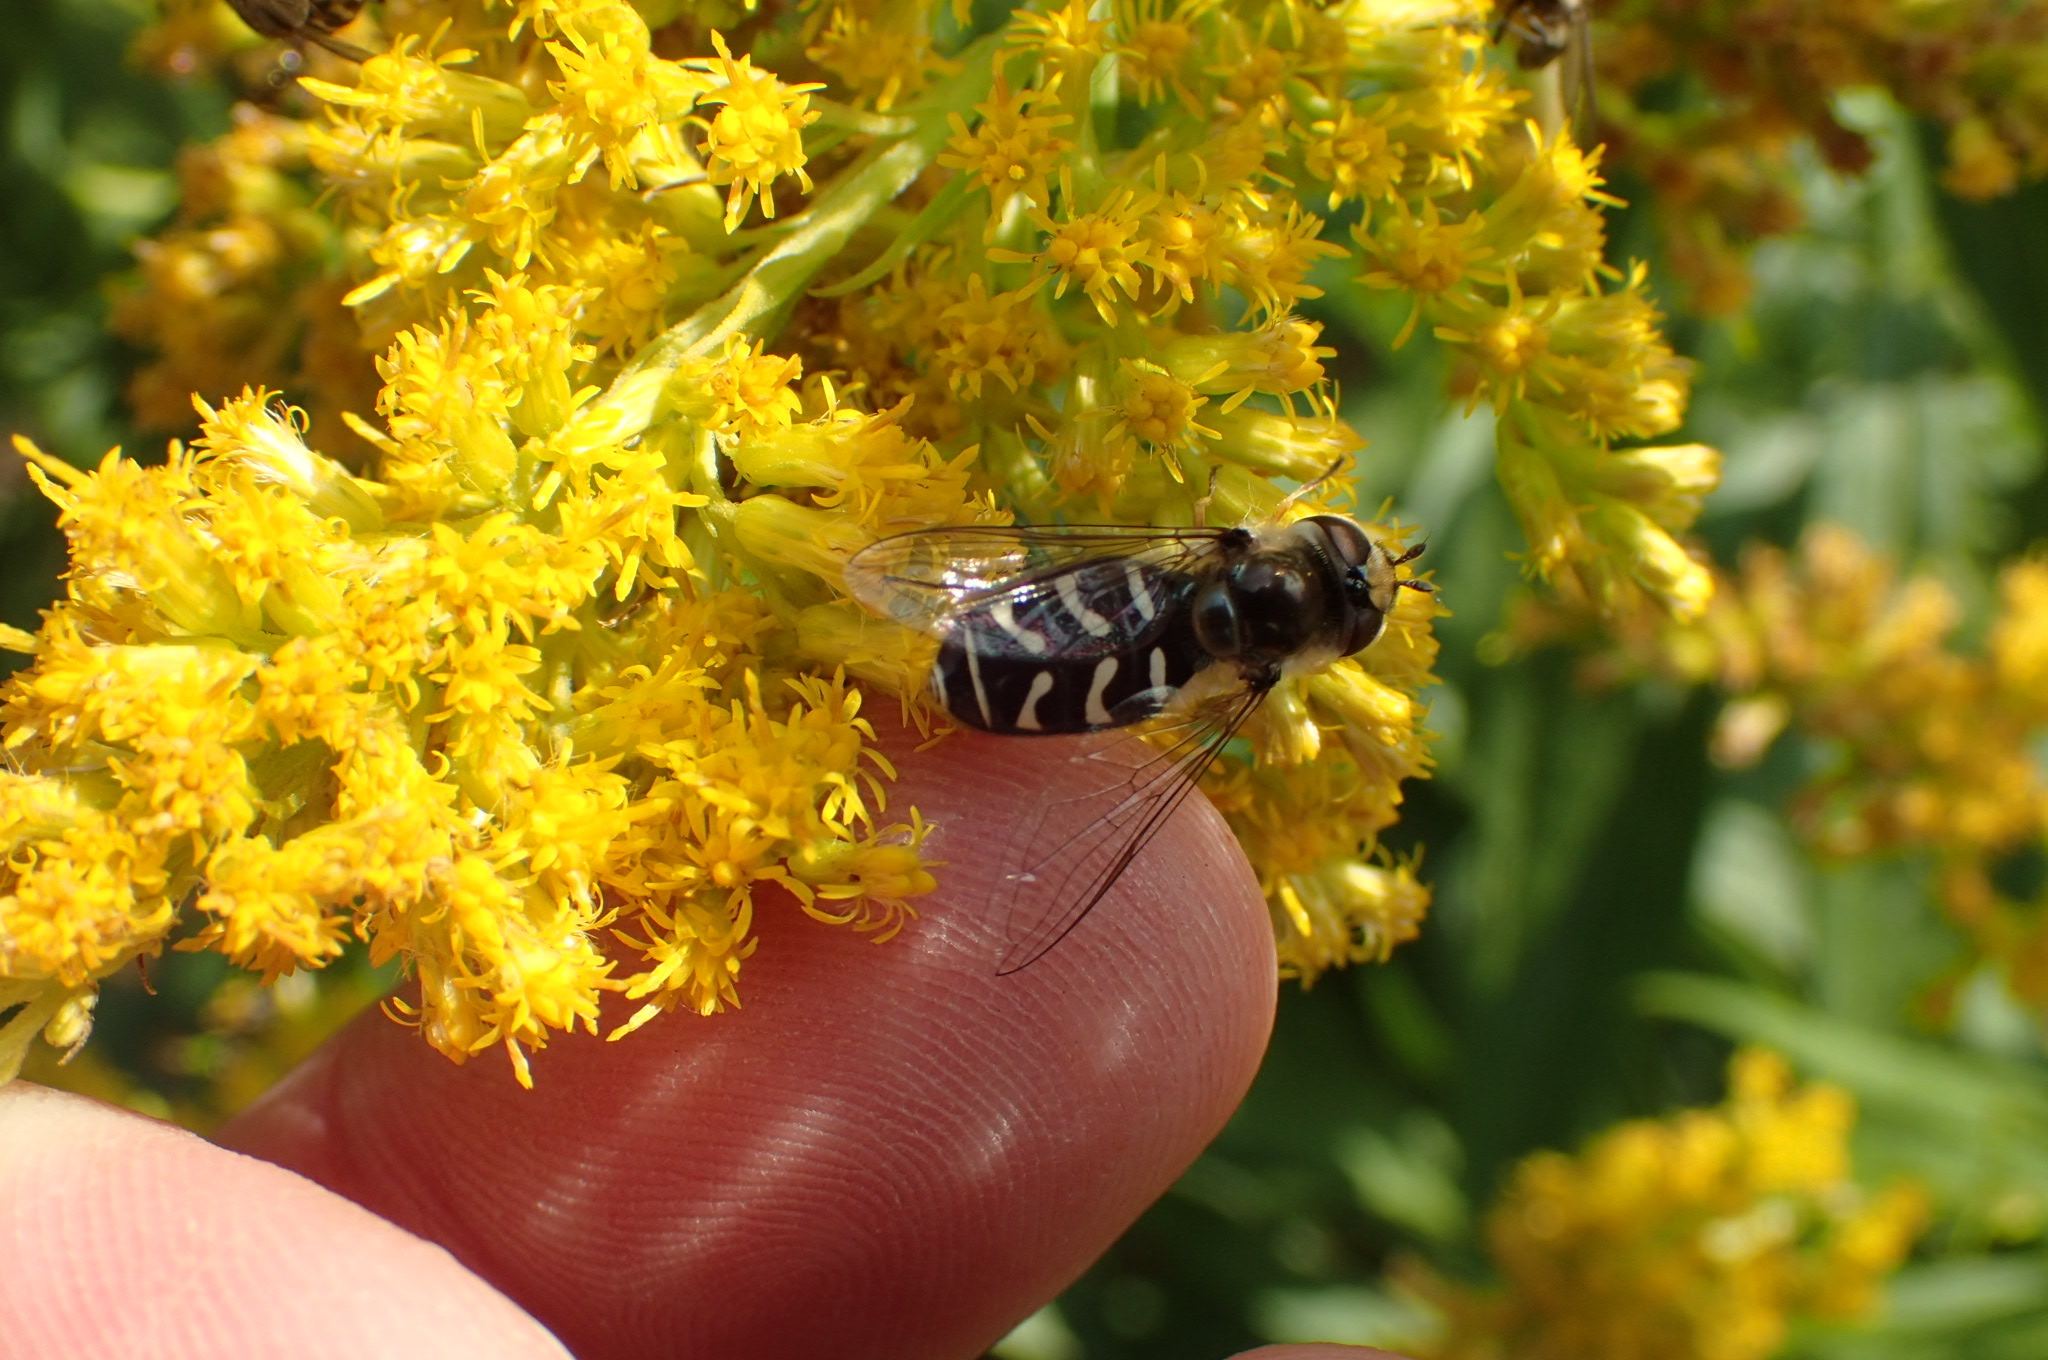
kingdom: Animalia
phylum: Arthropoda
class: Insecta
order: Diptera
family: Syrphidae
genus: Scaeva
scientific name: Scaeva affinis
